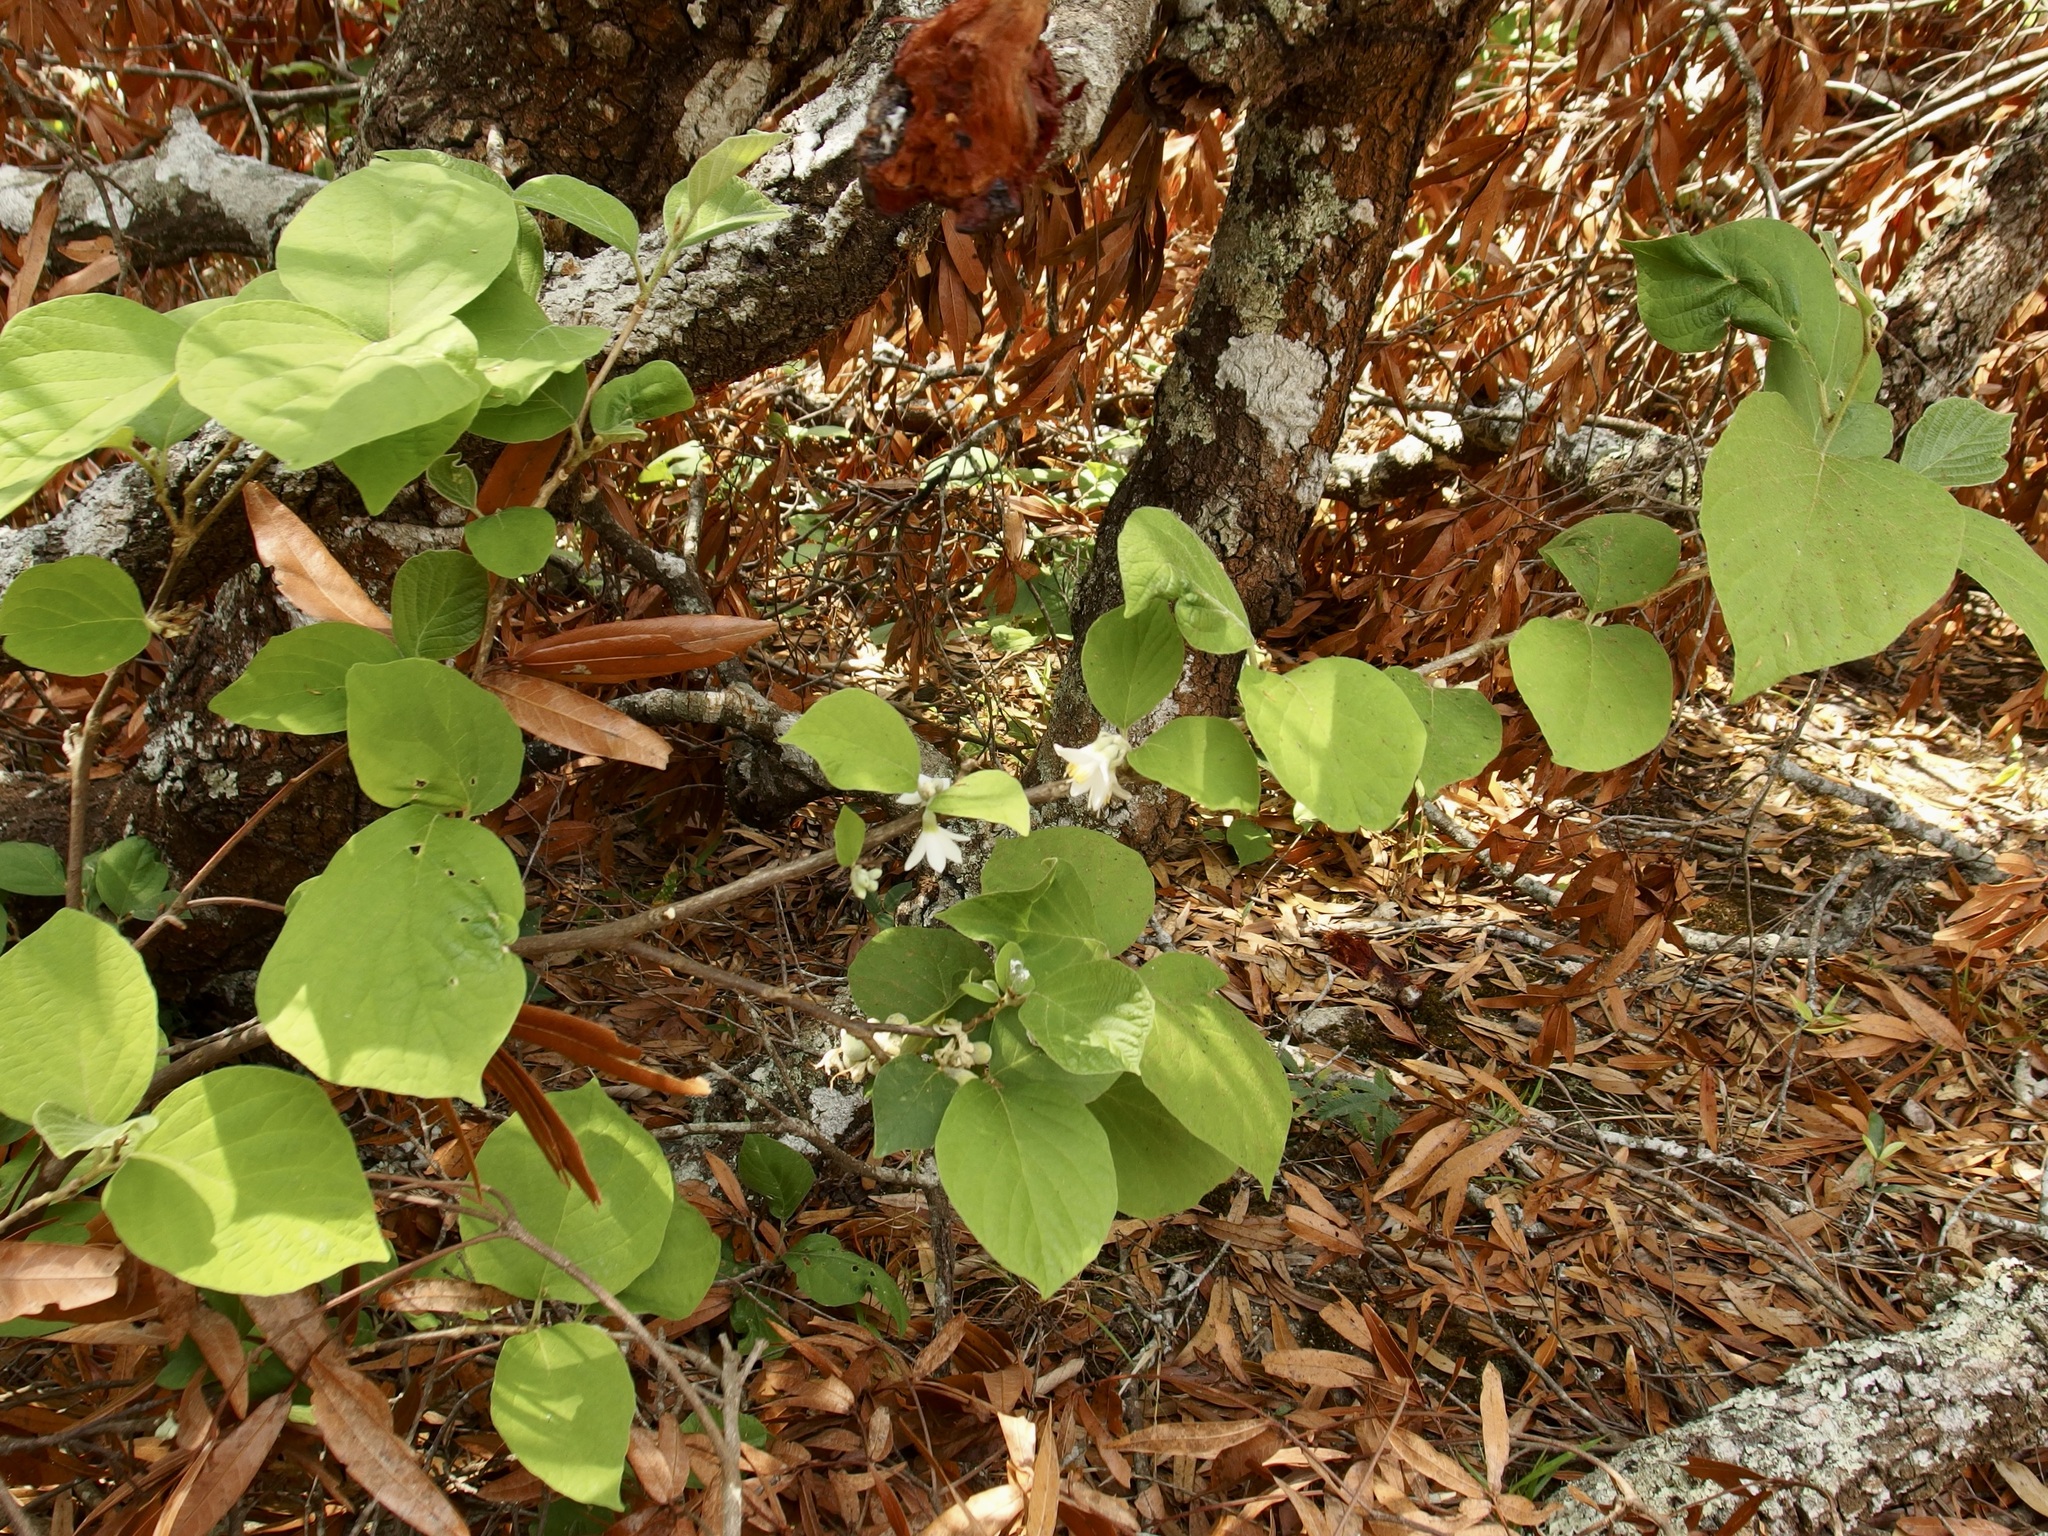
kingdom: Plantae
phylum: Tracheophyta
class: Magnoliopsida
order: Ericales
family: Styracaceae
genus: Styrax
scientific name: Styrax glabrescens
